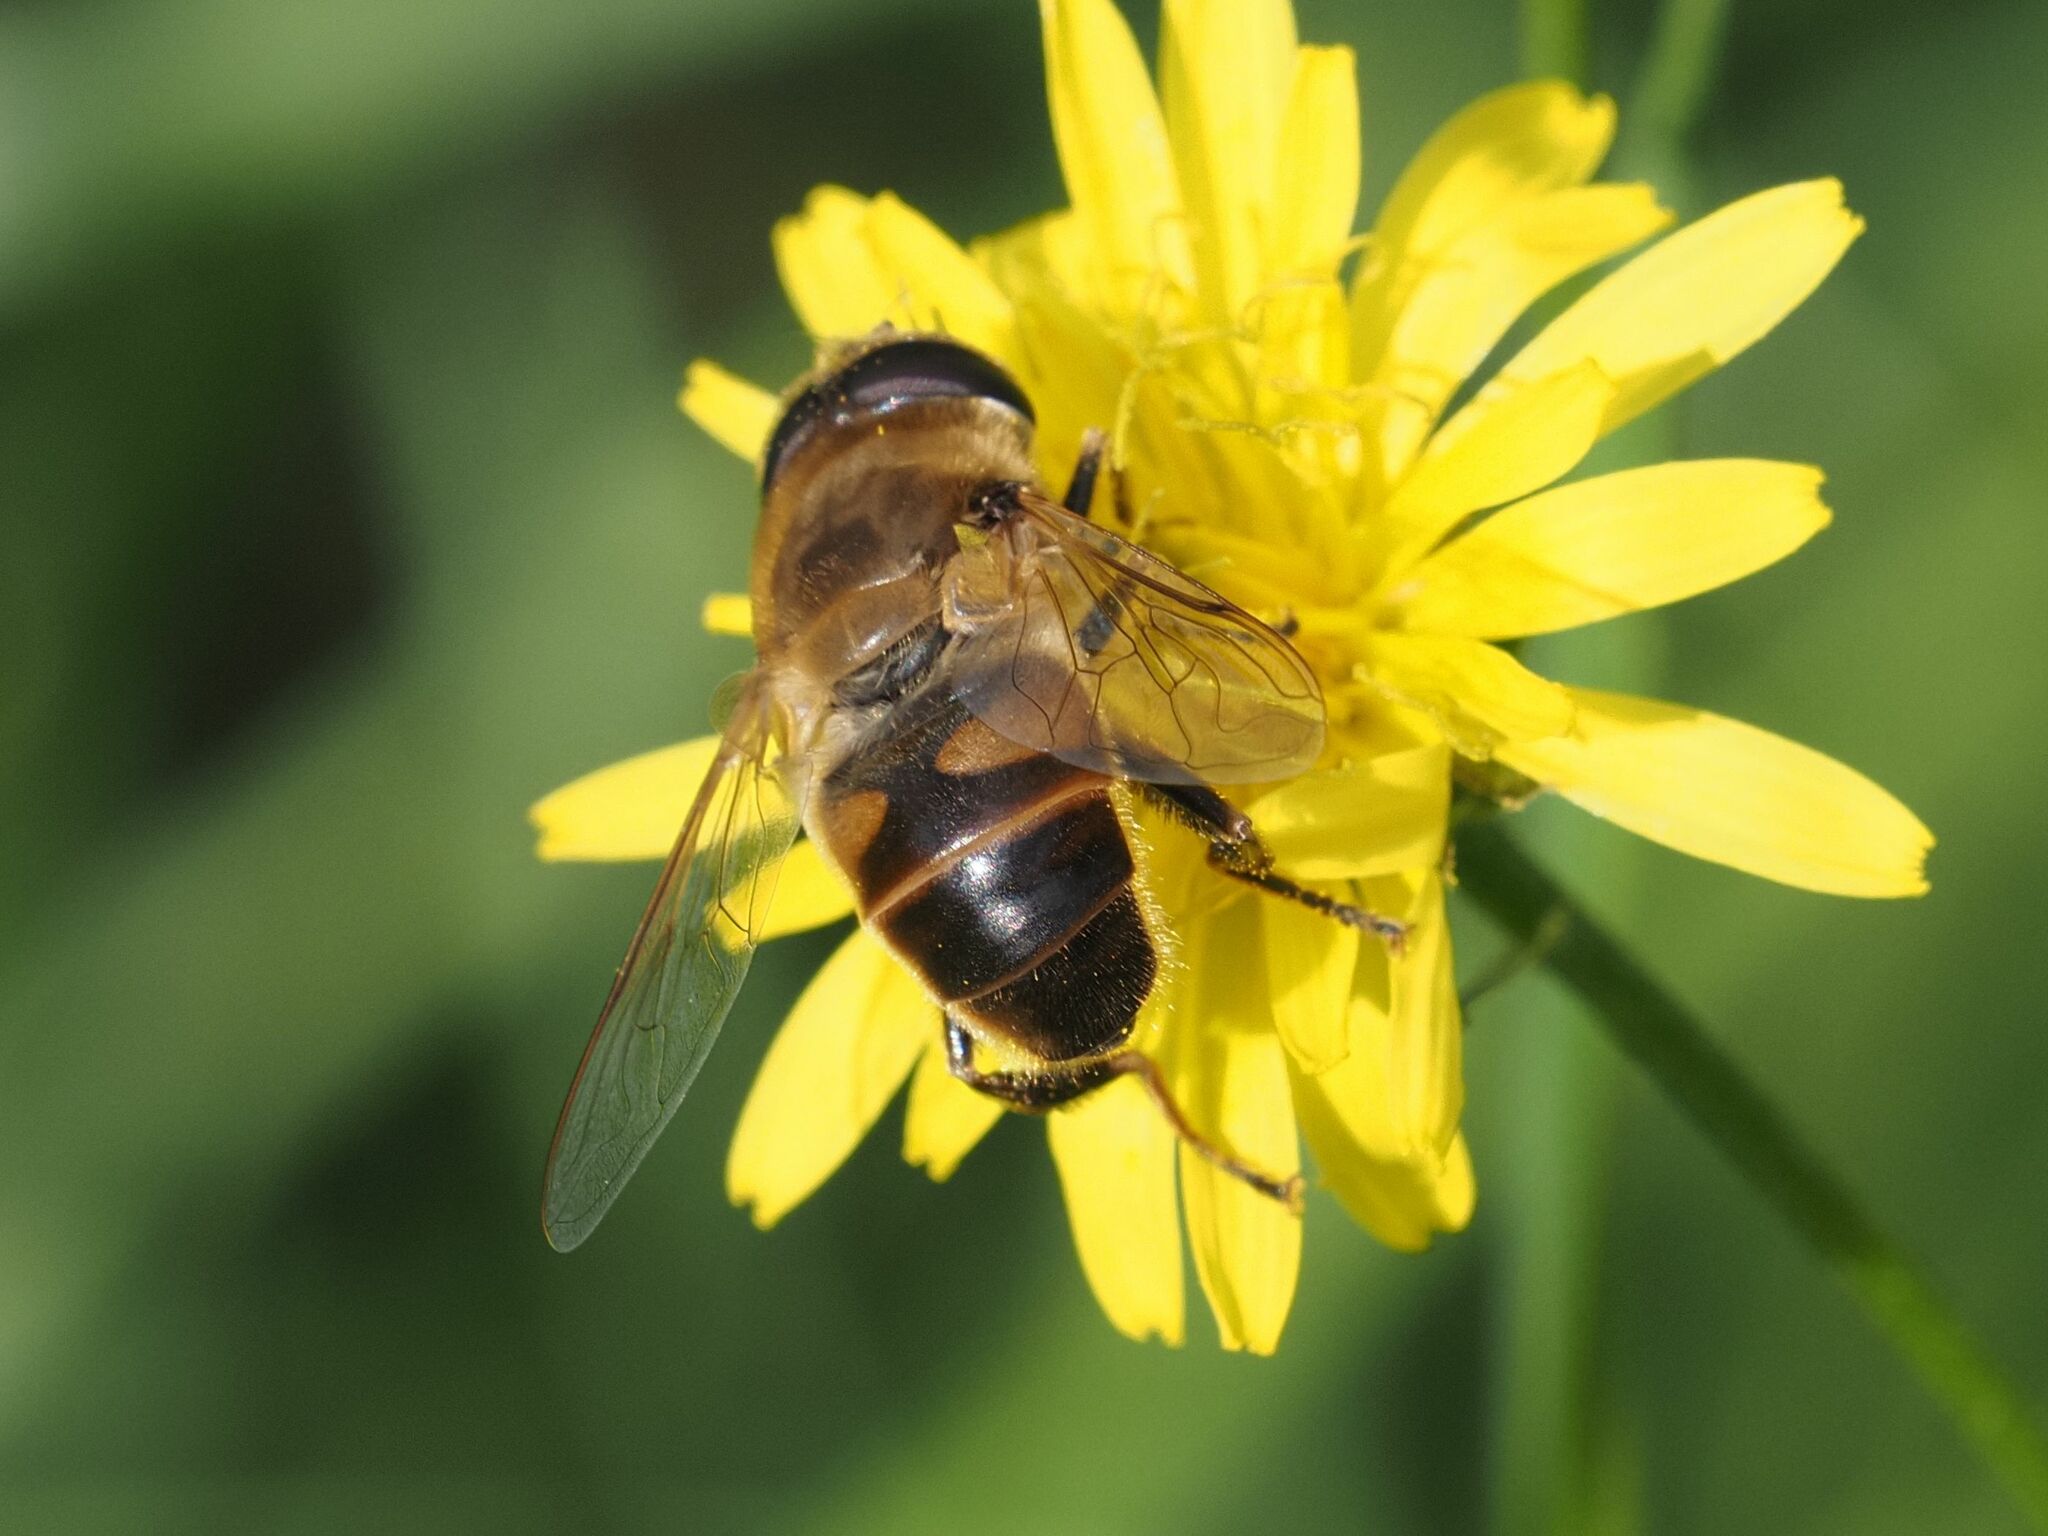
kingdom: Animalia
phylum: Arthropoda
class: Insecta
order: Diptera
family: Syrphidae
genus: Eristalis
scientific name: Eristalis tenax
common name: Drone fly
